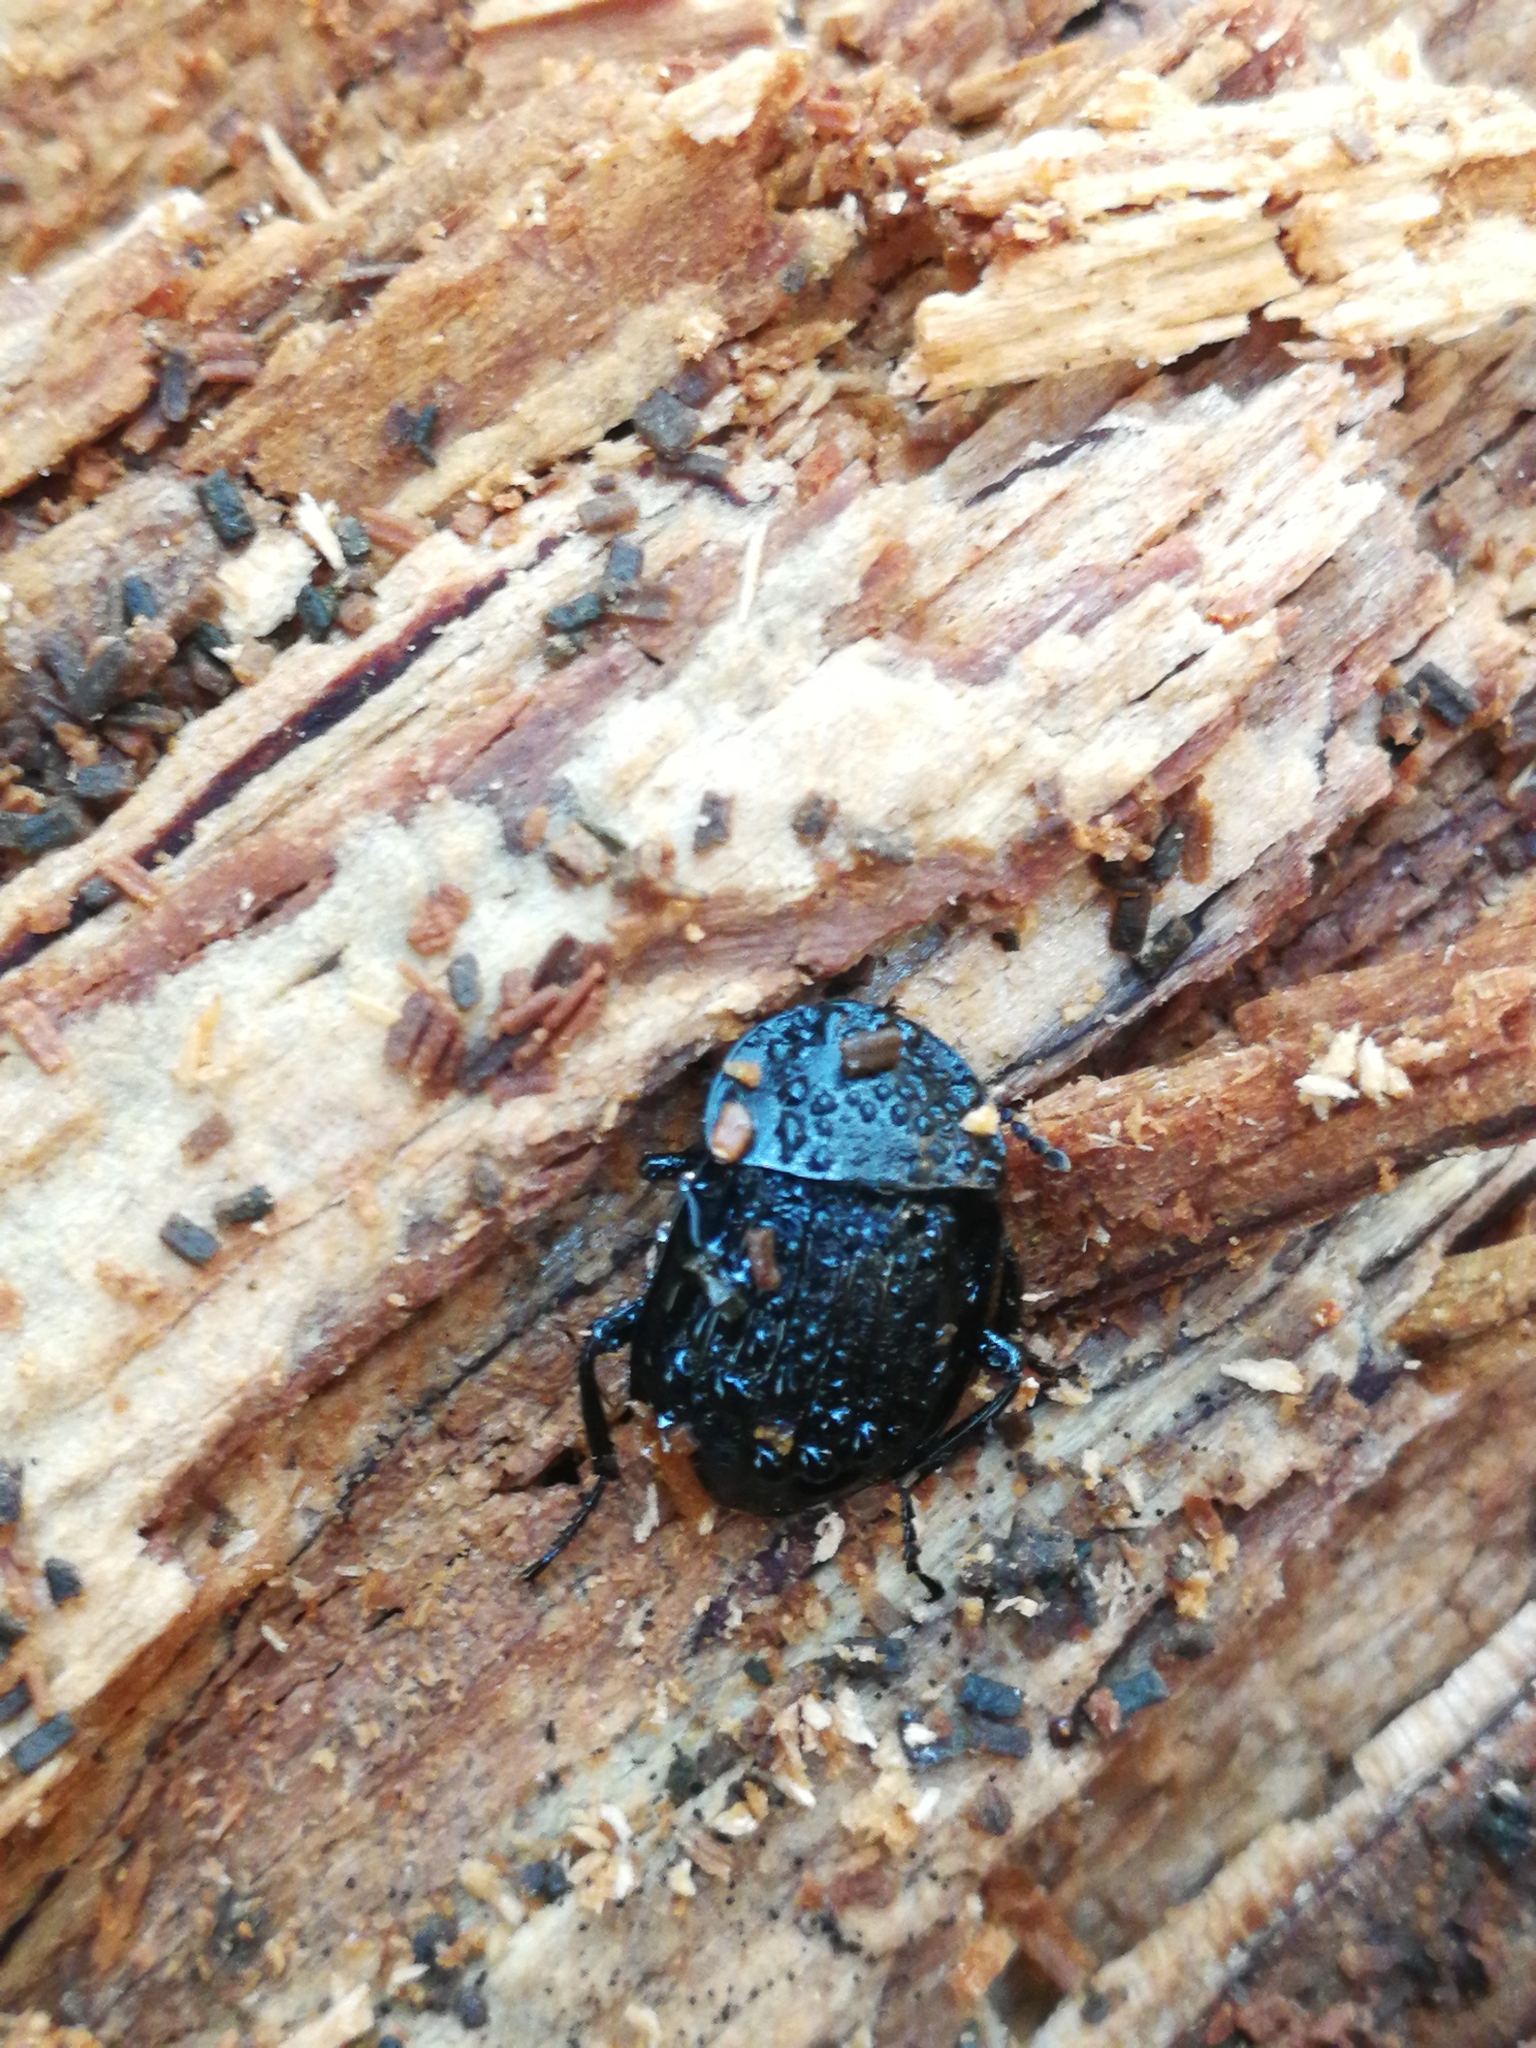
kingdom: Animalia
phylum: Arthropoda
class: Insecta
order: Coleoptera
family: Staphylinidae
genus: Silpha
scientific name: Silpha atrata
